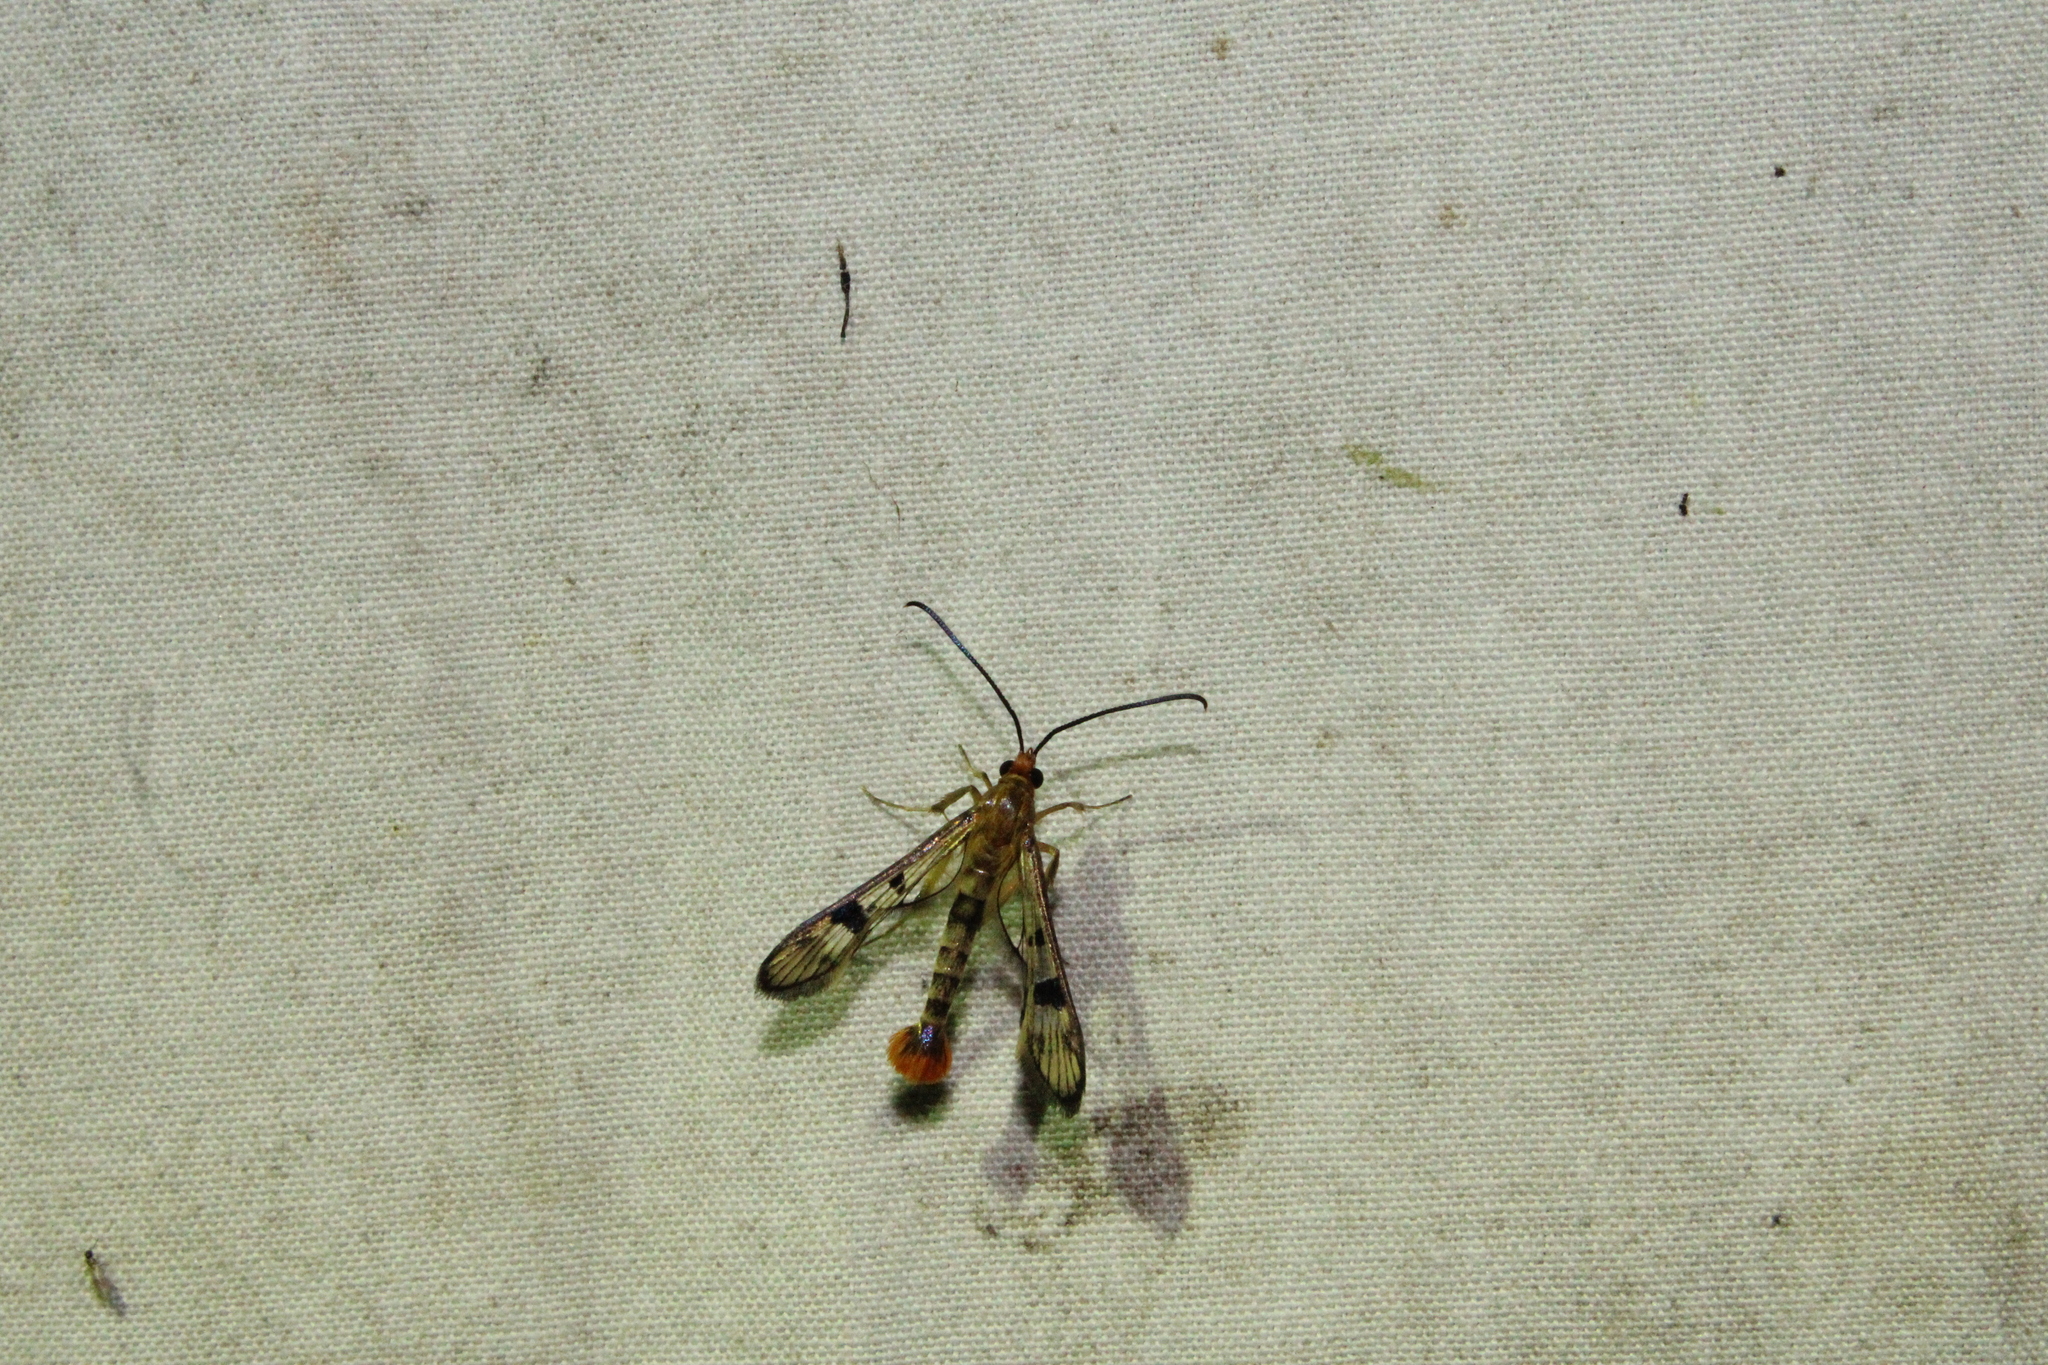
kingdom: Animalia
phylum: Arthropoda
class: Insecta
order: Lepidoptera
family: Sesiidae
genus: Synanthedon
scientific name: Synanthedon acerni
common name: Maple callus borer moth
